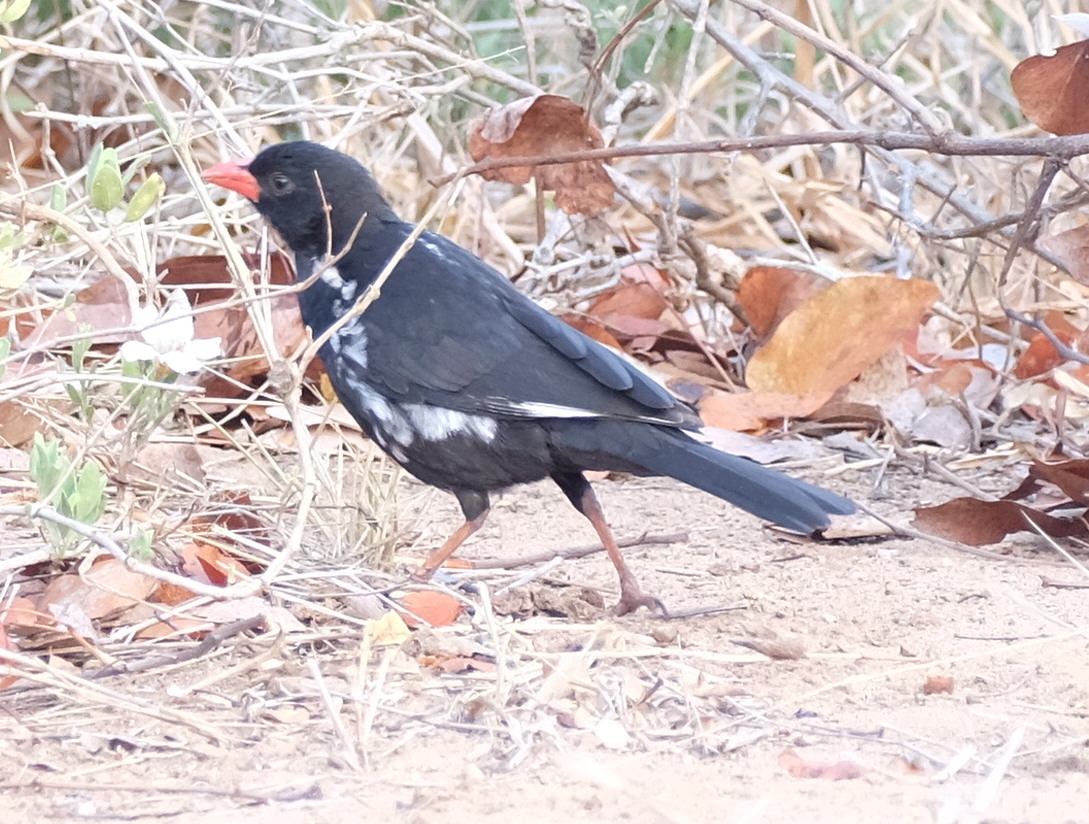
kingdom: Animalia
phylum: Chordata
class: Aves
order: Passeriformes
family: Ploceidae
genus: Bubalornis
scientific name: Bubalornis niger
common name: Red-billed buffalo weaver
